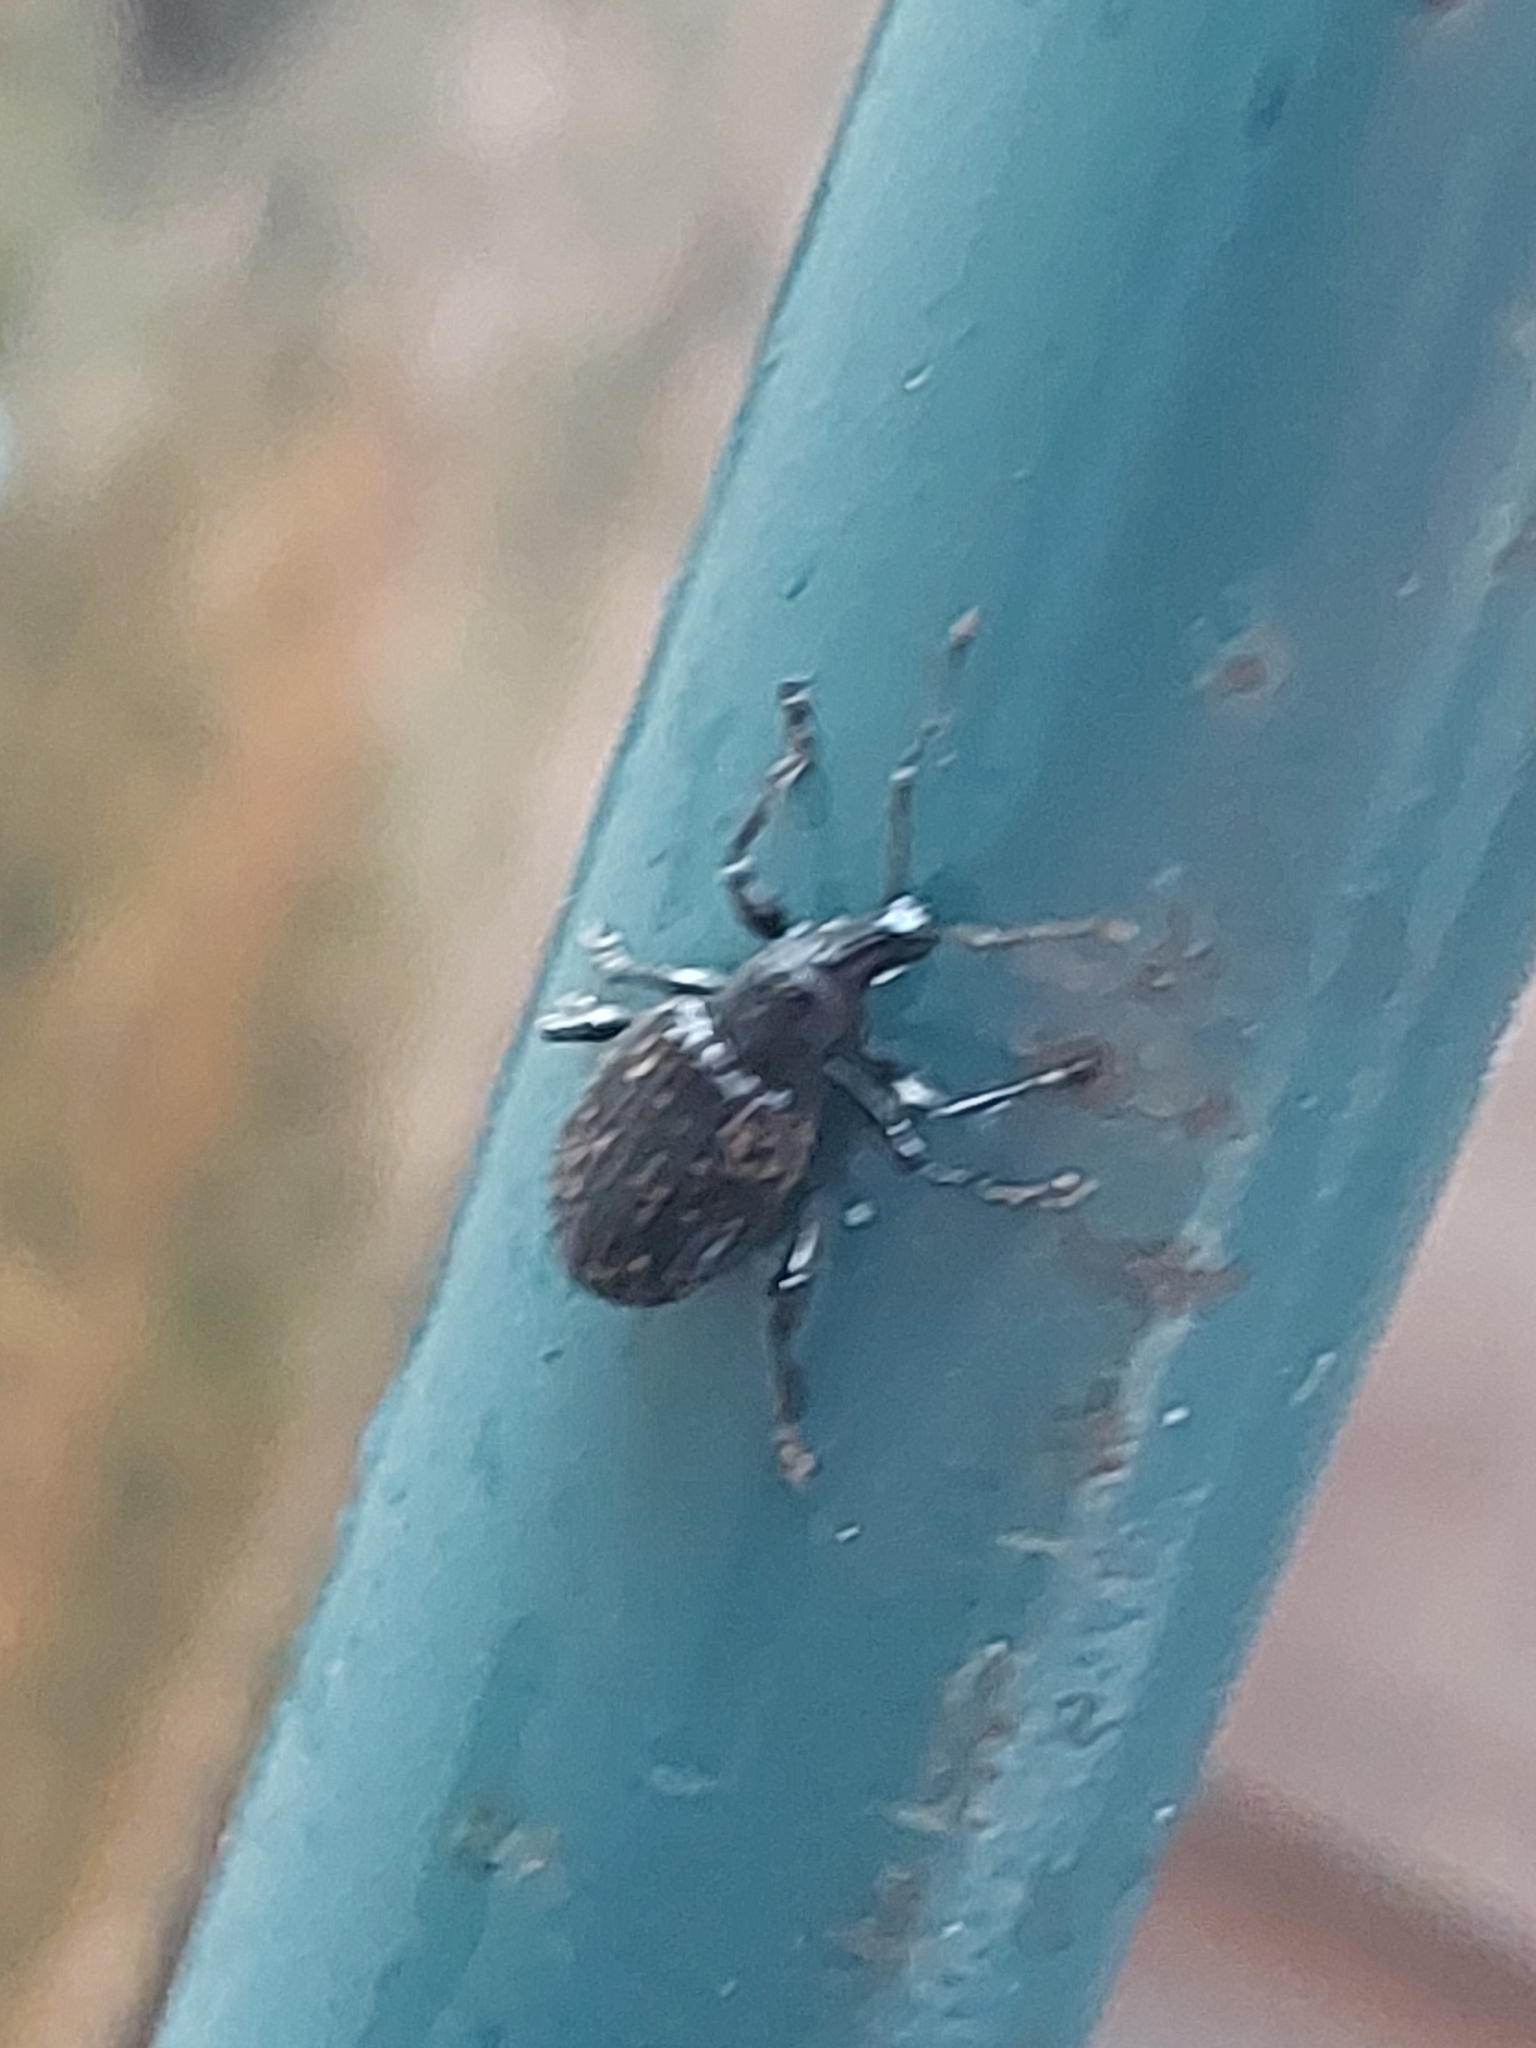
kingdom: Animalia
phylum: Arthropoda
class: Insecta
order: Coleoptera
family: Curculionidae
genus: Otiorhynchus
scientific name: Otiorhynchus sulcatus
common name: Black vine weevil
